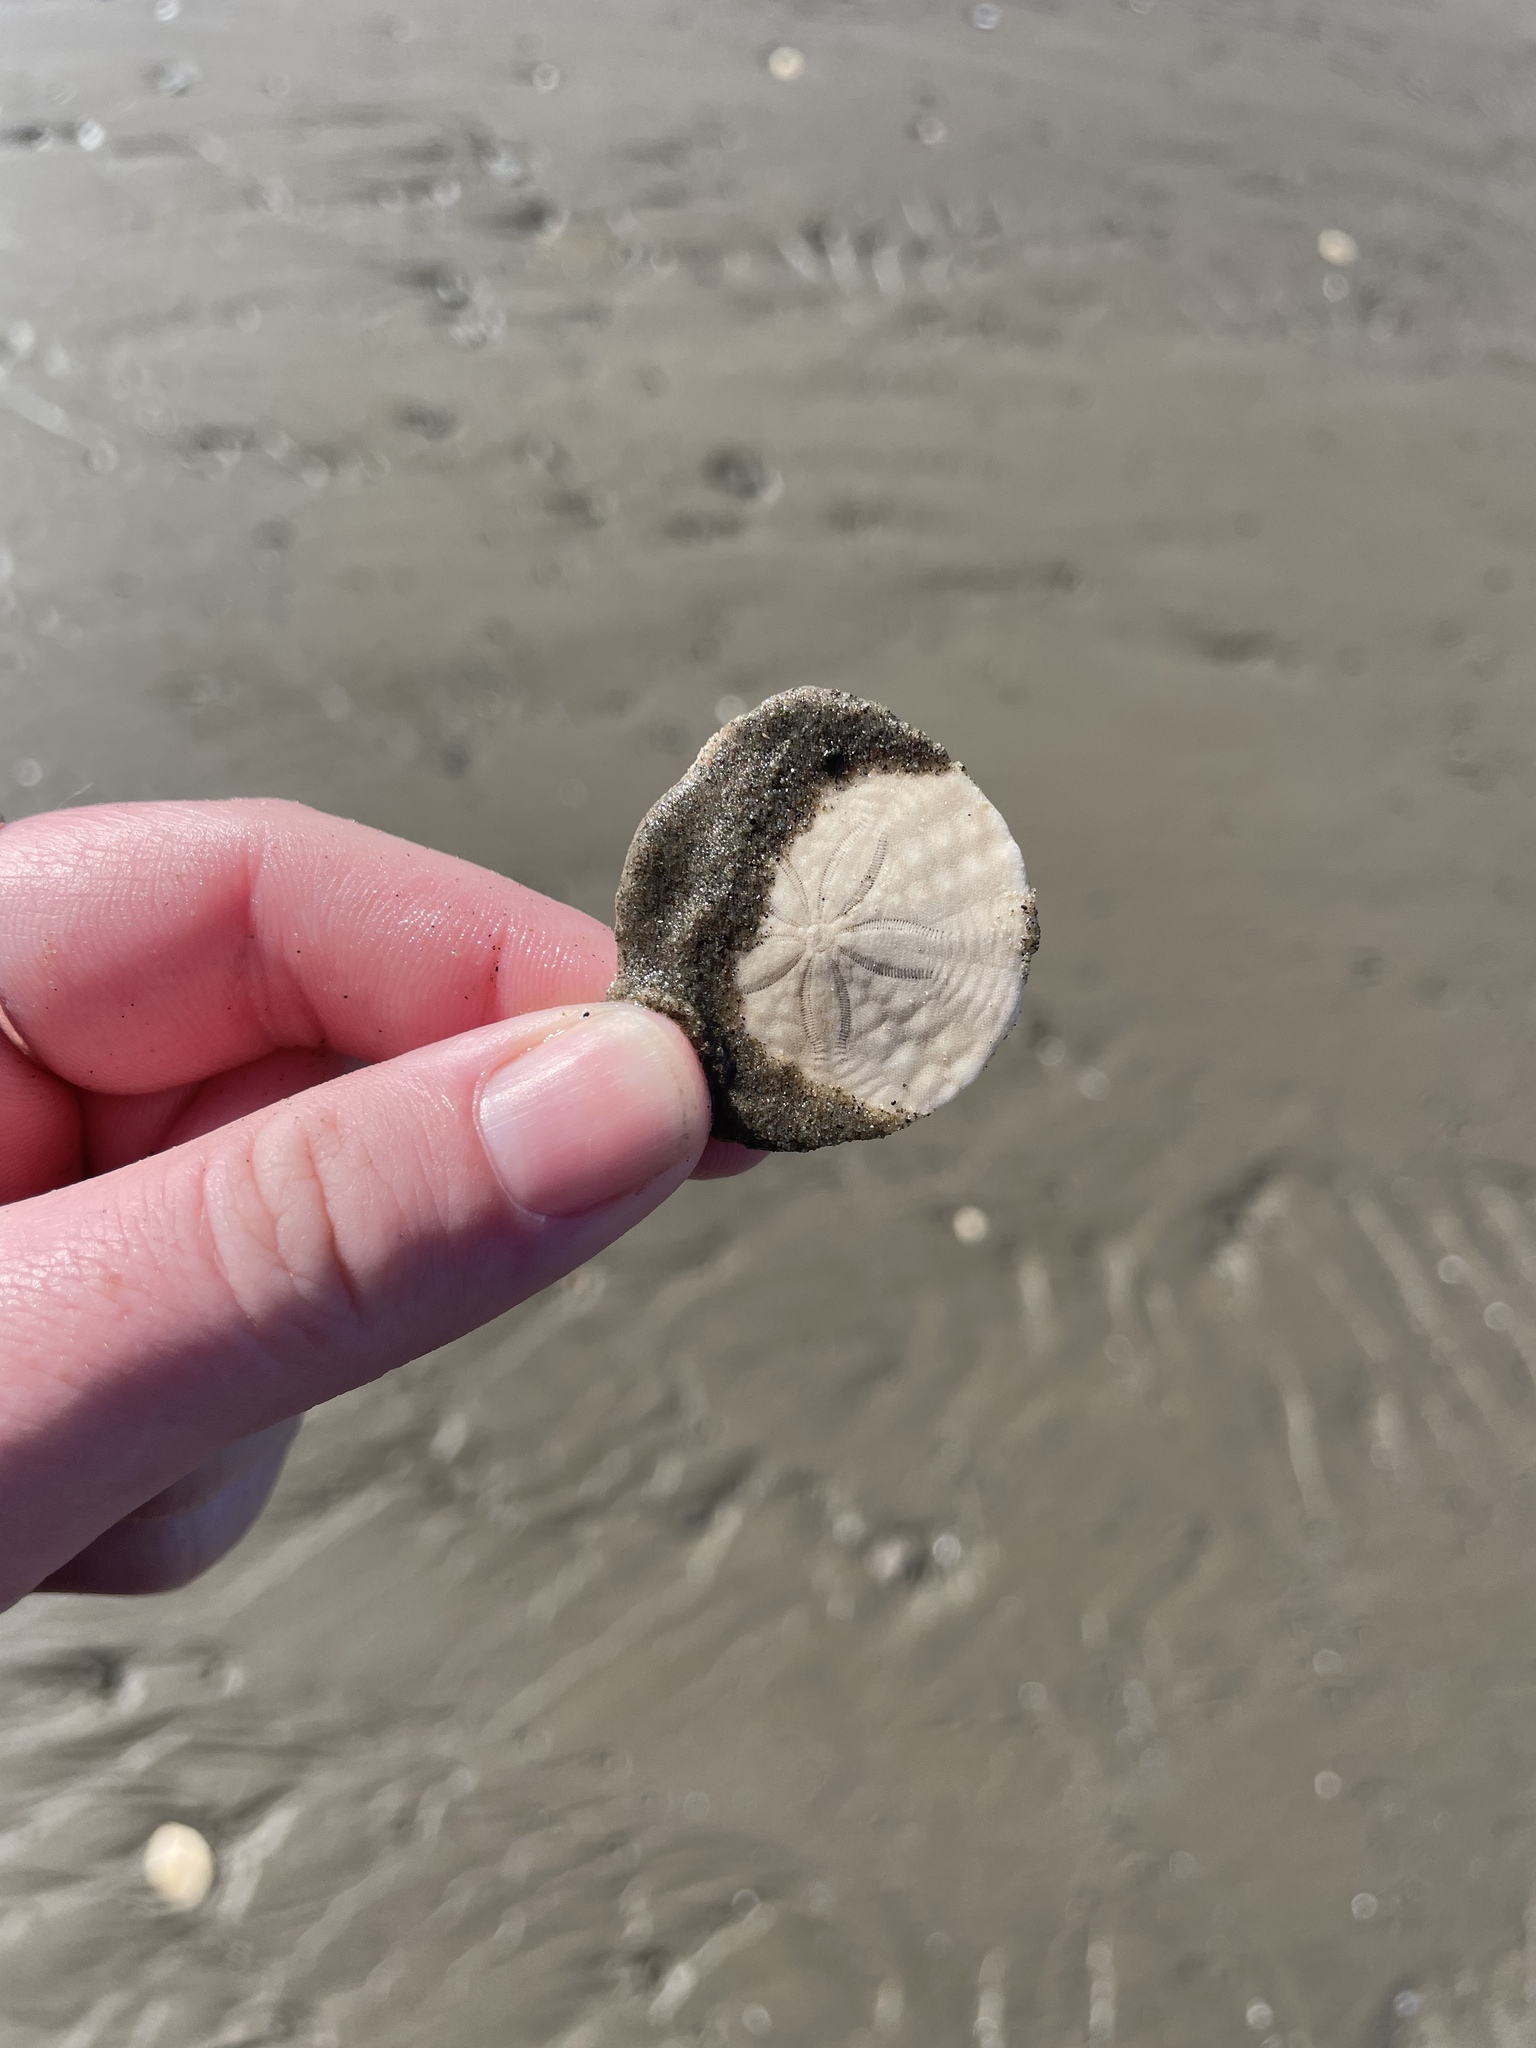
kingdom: Animalia
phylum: Echinodermata
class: Echinoidea
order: Echinolampadacea
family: Echinarachniidae
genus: Echinarachnius
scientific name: Echinarachnius parma
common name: Common sand dollar
